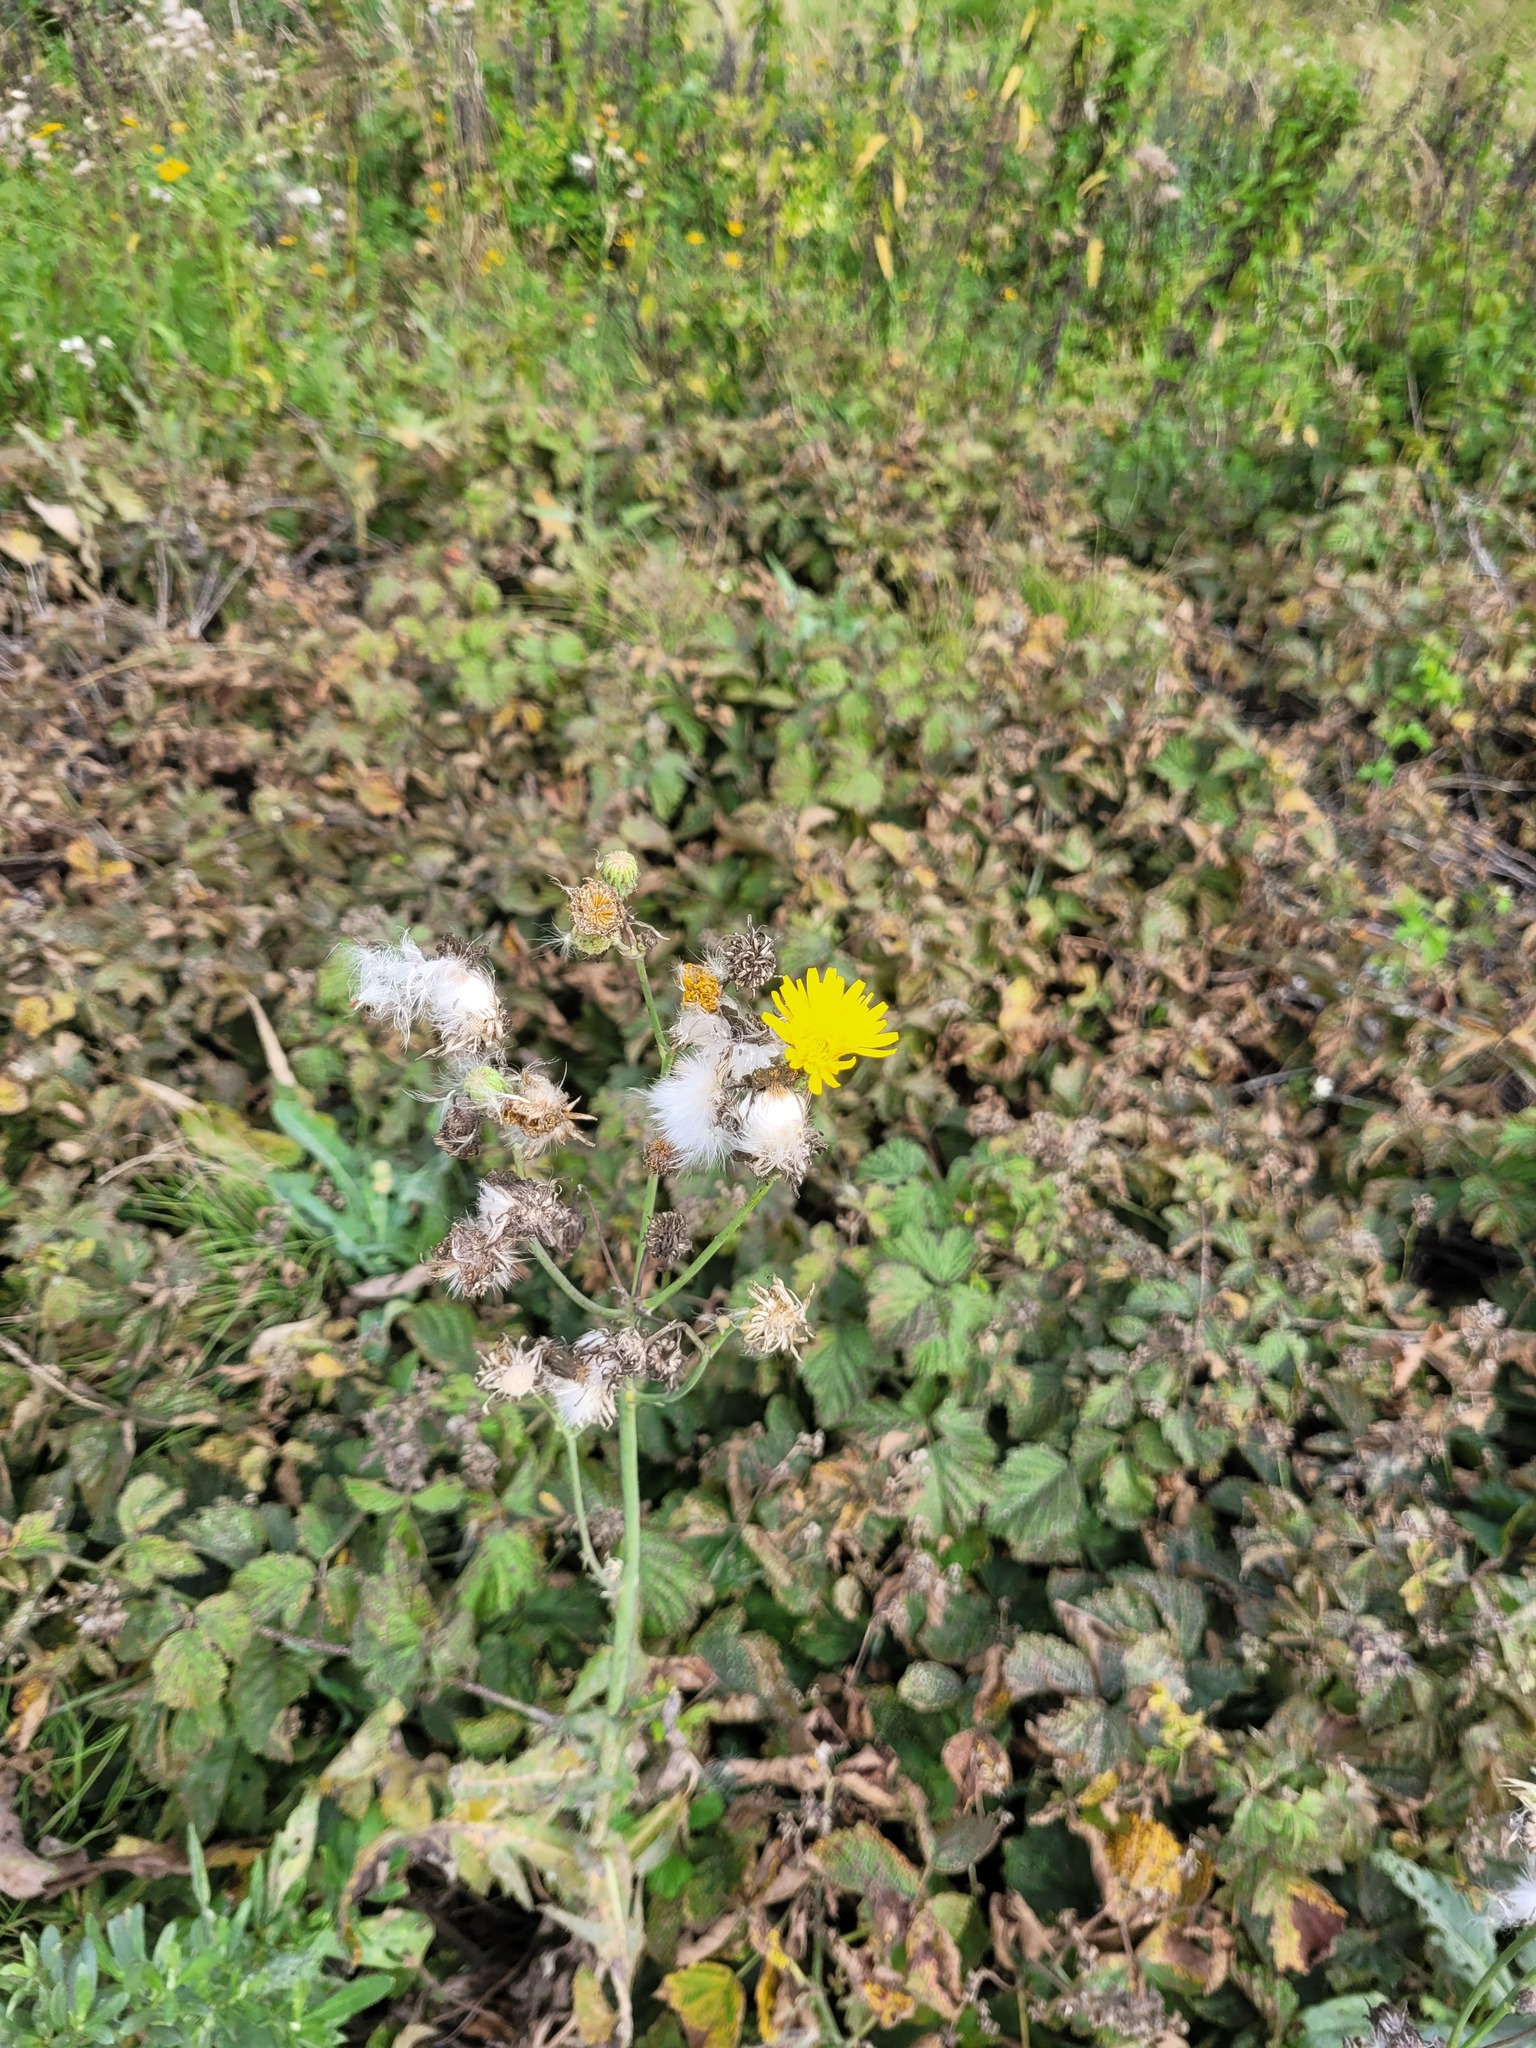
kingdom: Plantae
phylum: Tracheophyta
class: Magnoliopsida
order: Asterales
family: Asteraceae
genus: Sonchus
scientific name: Sonchus arvensis
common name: Perennial sow-thistle
